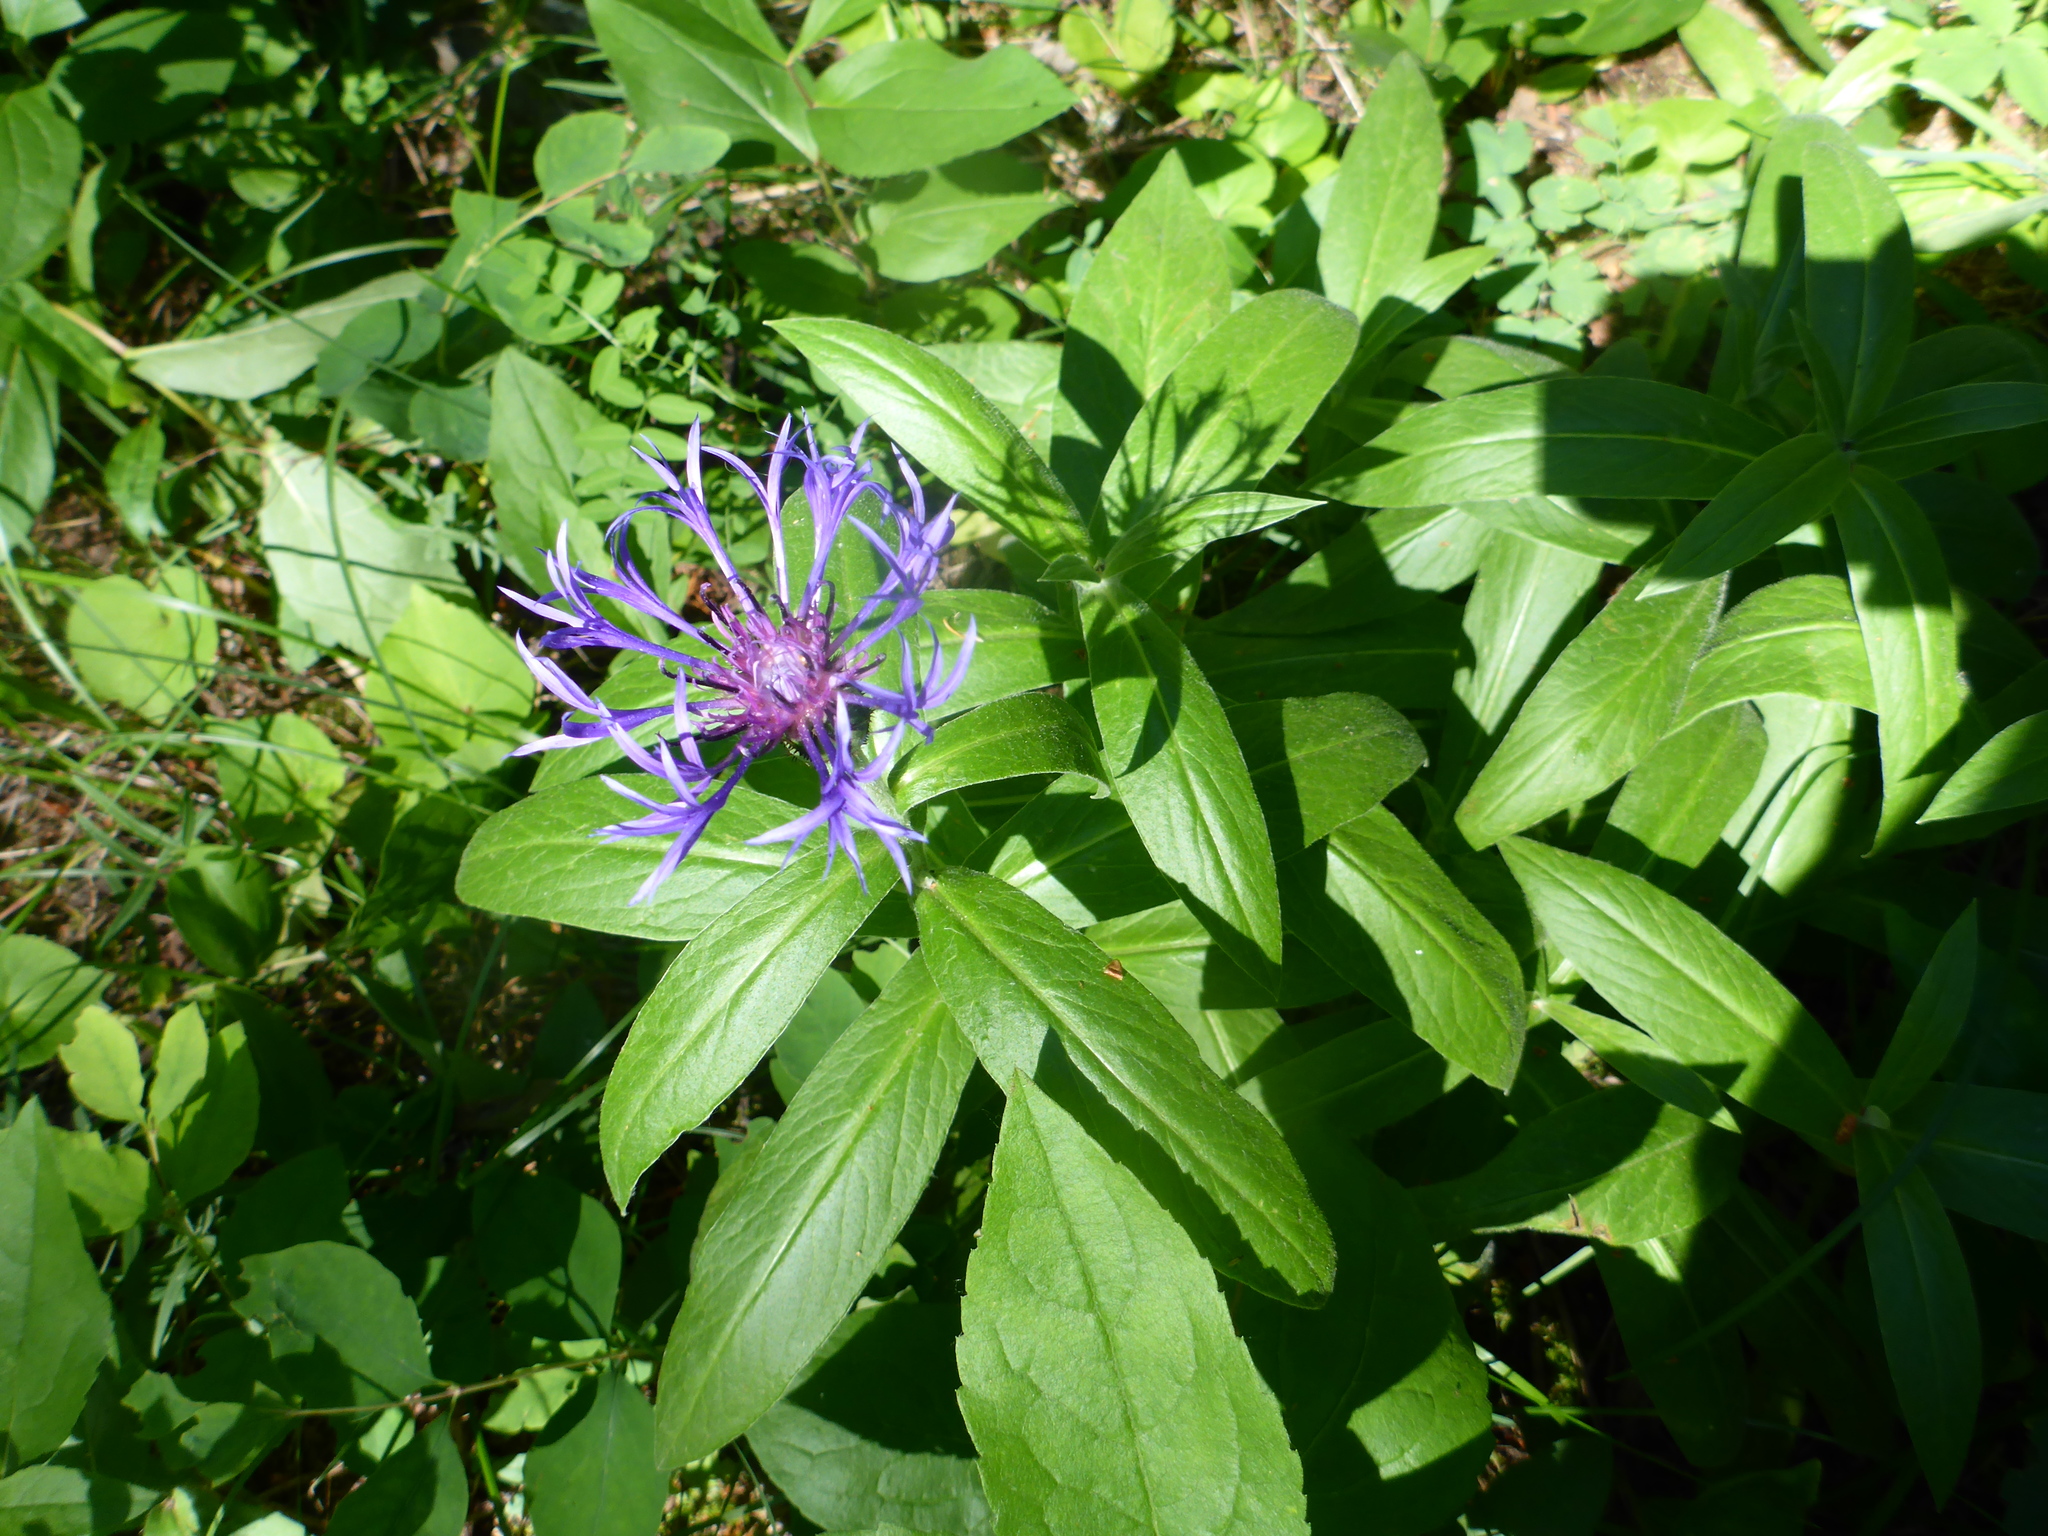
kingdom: Plantae
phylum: Tracheophyta
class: Magnoliopsida
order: Asterales
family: Asteraceae
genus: Centaurea
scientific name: Centaurea montana
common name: Perennial cornflower
